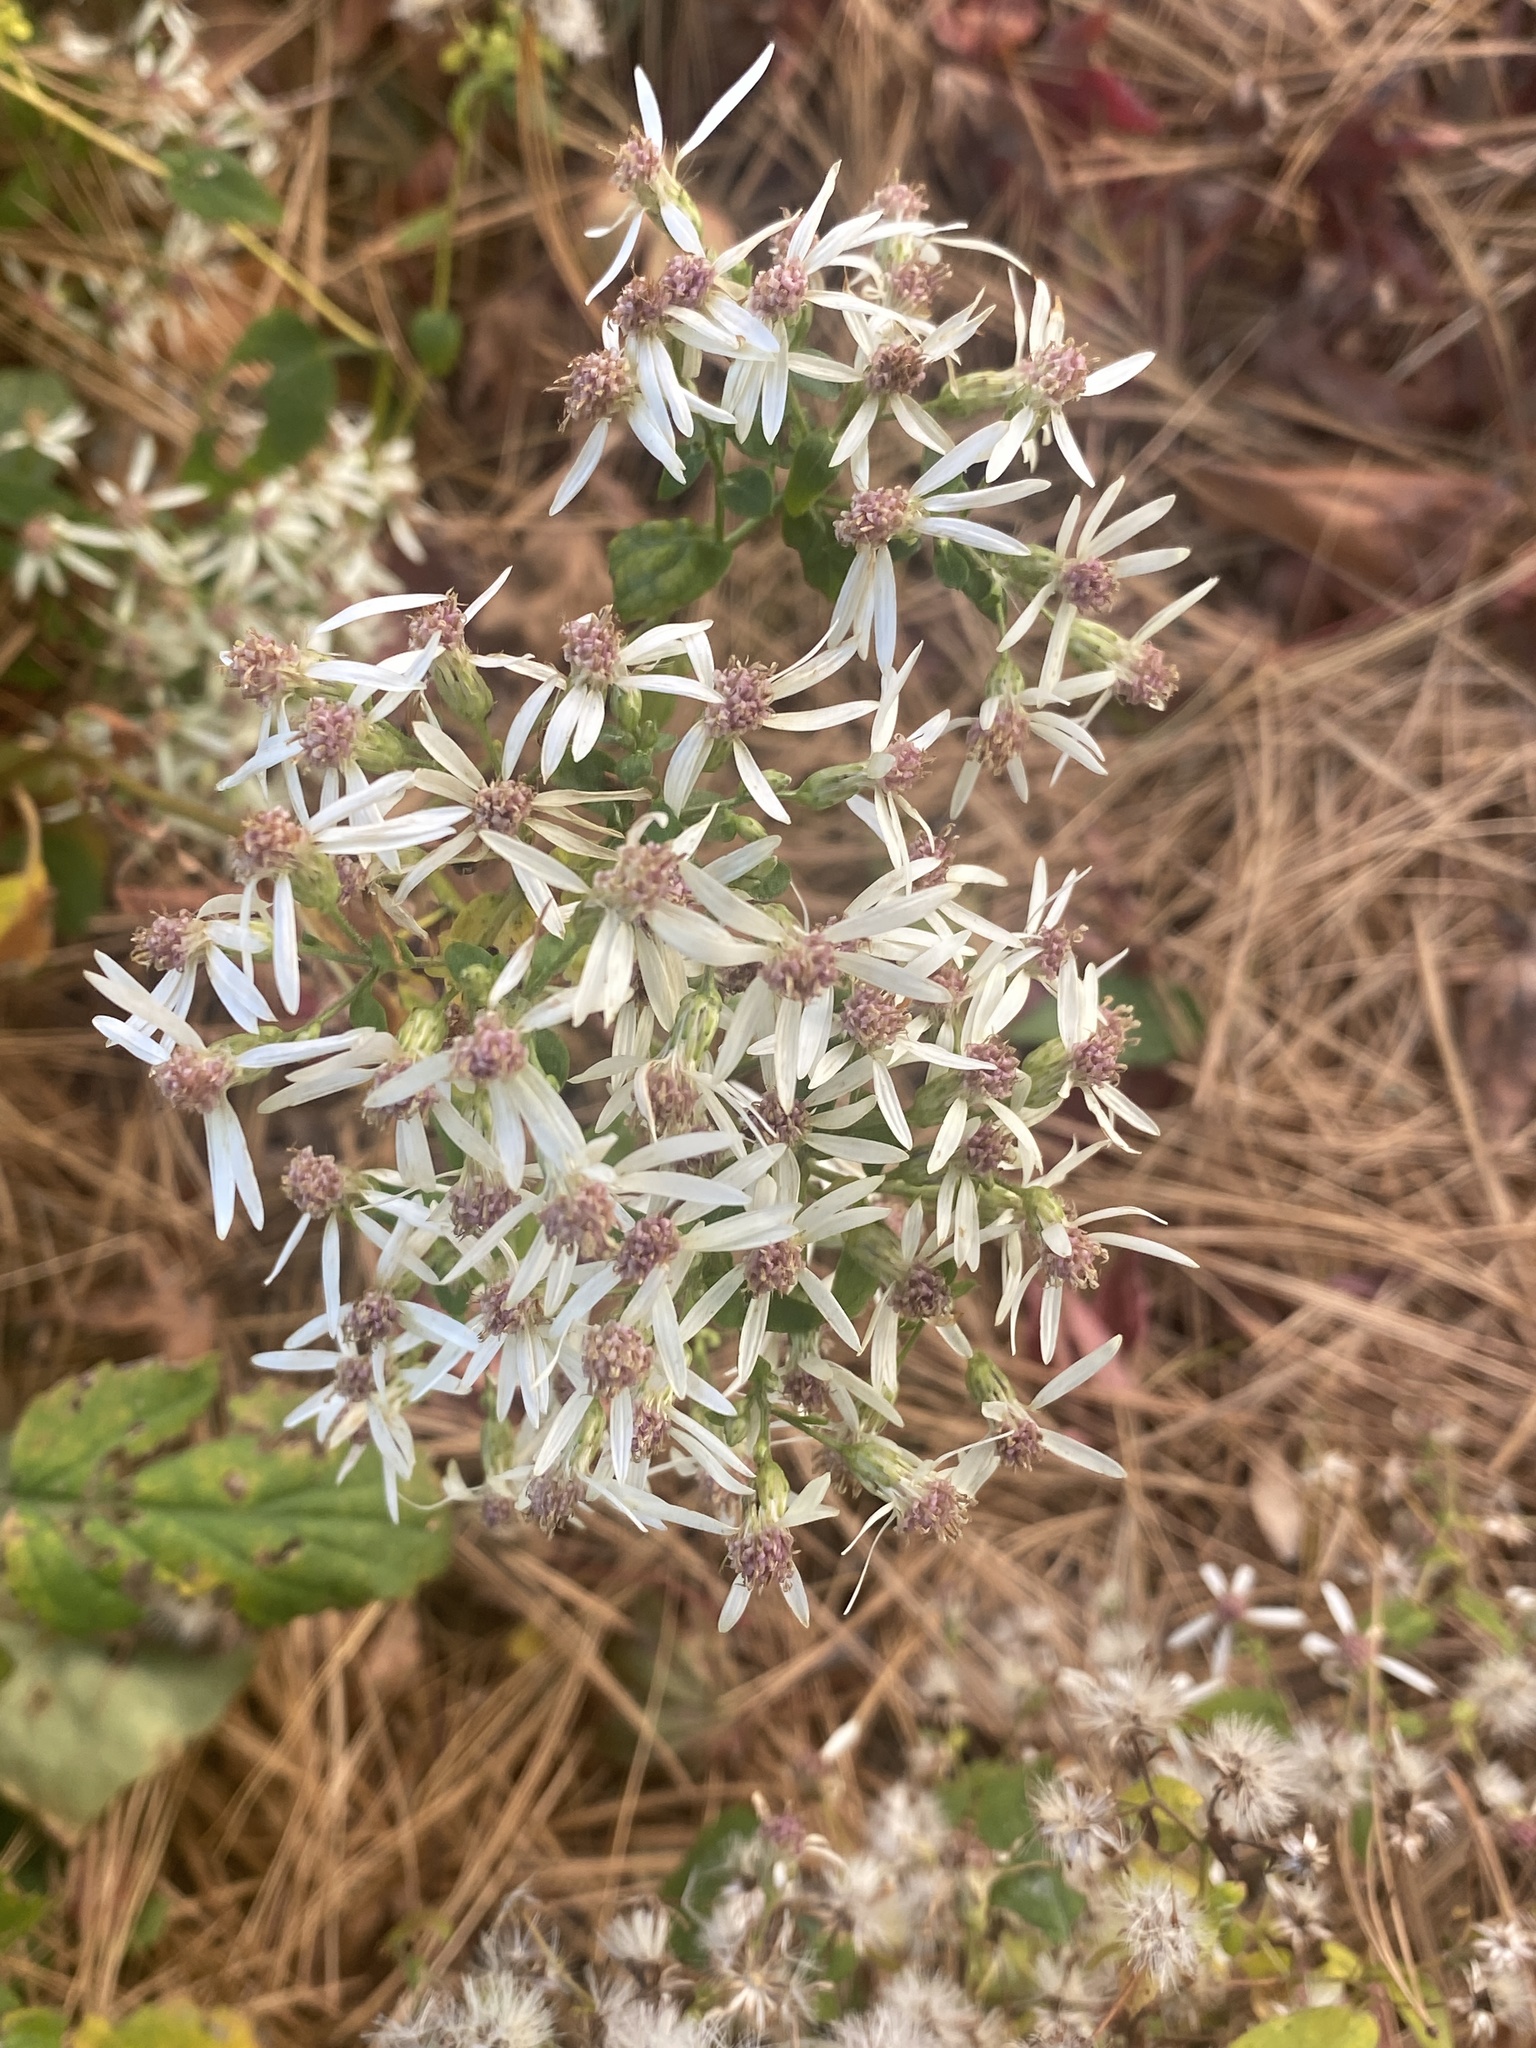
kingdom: Plantae
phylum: Tracheophyta
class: Magnoliopsida
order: Asterales
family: Asteraceae
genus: Eurybia
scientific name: Eurybia divaricata
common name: White wood aster
